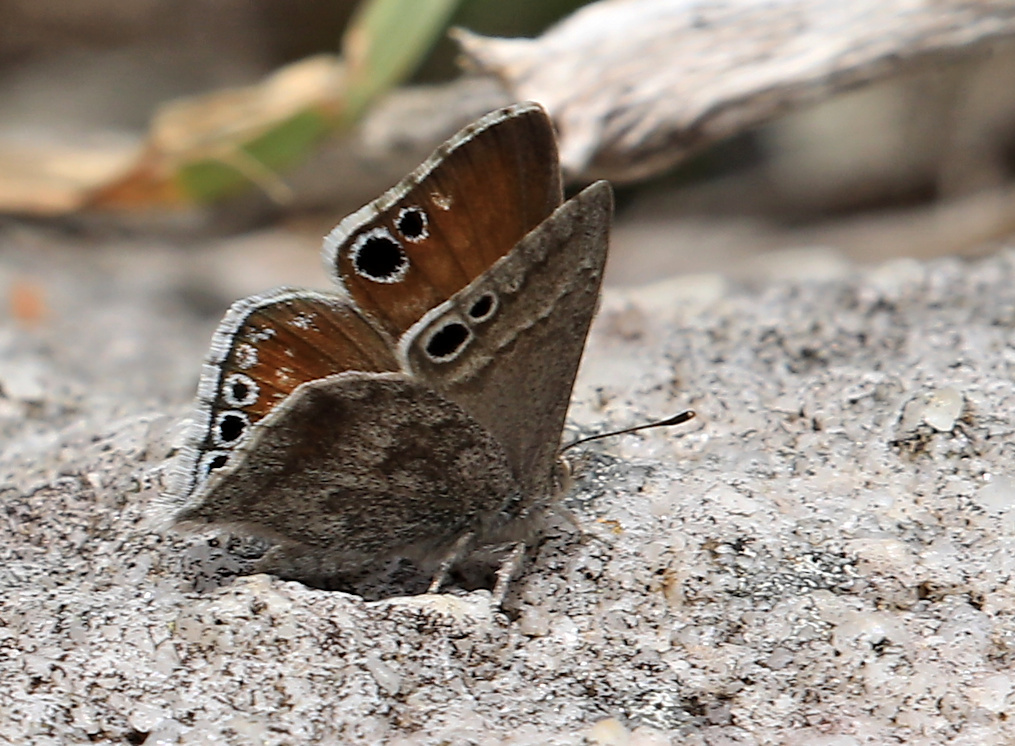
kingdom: Animalia
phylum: Arthropoda
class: Insecta
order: Lepidoptera
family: Lycaenidae
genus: Leptomyrina
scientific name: Leptomyrina gorgias
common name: Common black-eye
